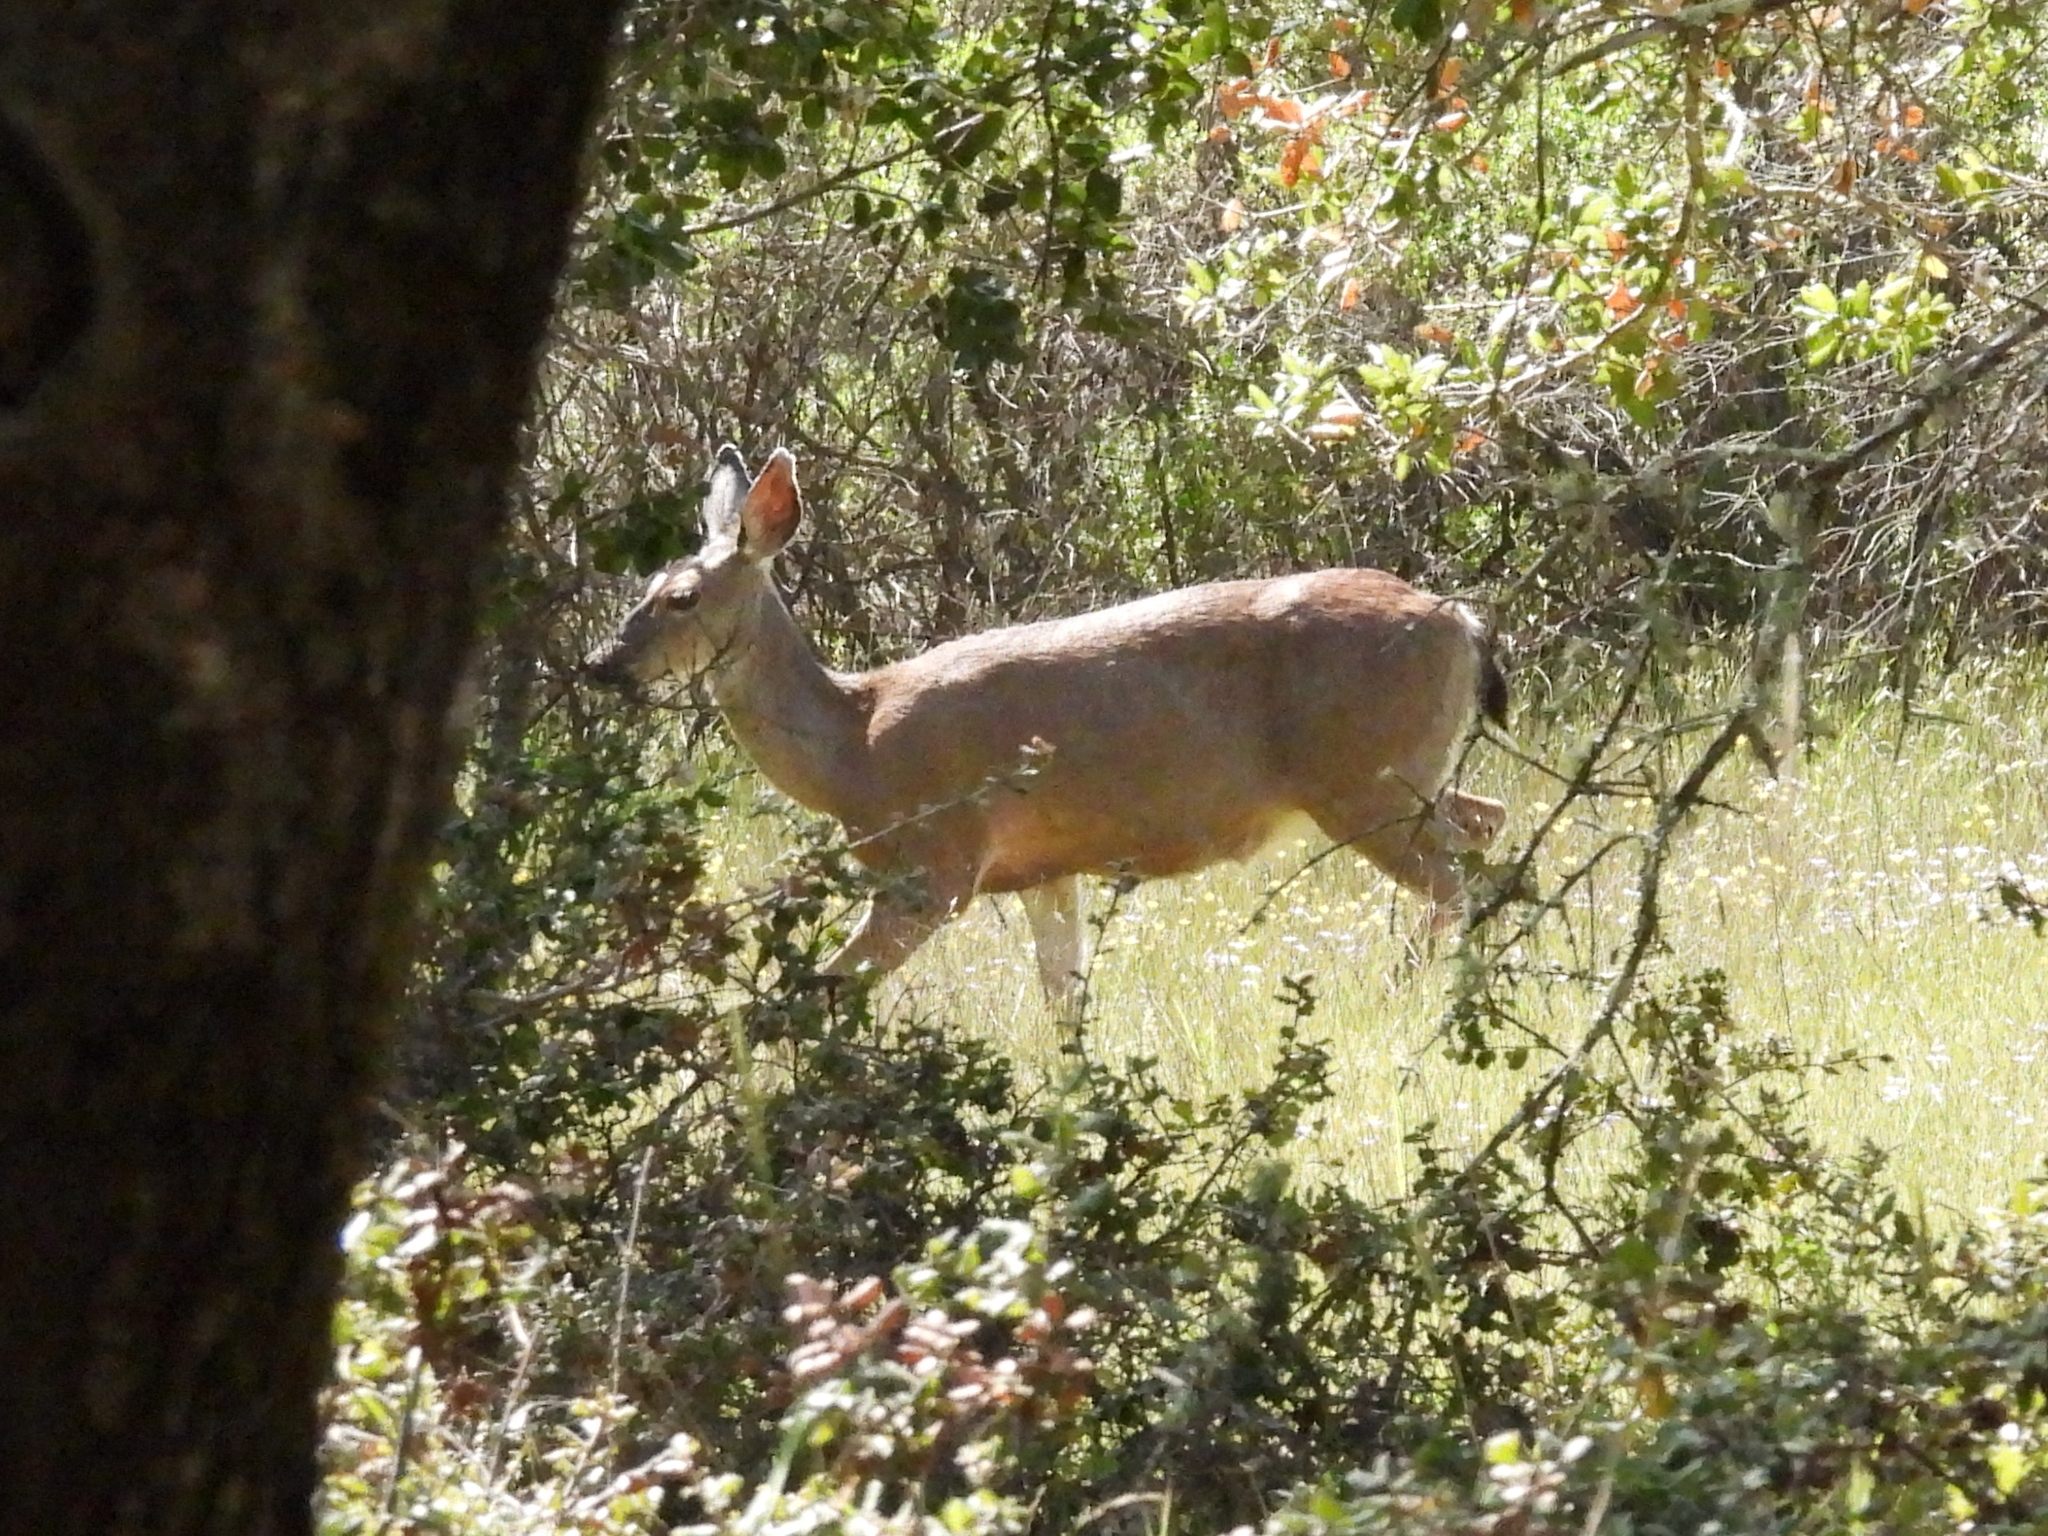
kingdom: Animalia
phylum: Chordata
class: Mammalia
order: Artiodactyla
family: Cervidae
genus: Odocoileus
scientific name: Odocoileus hemionus
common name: Mule deer
